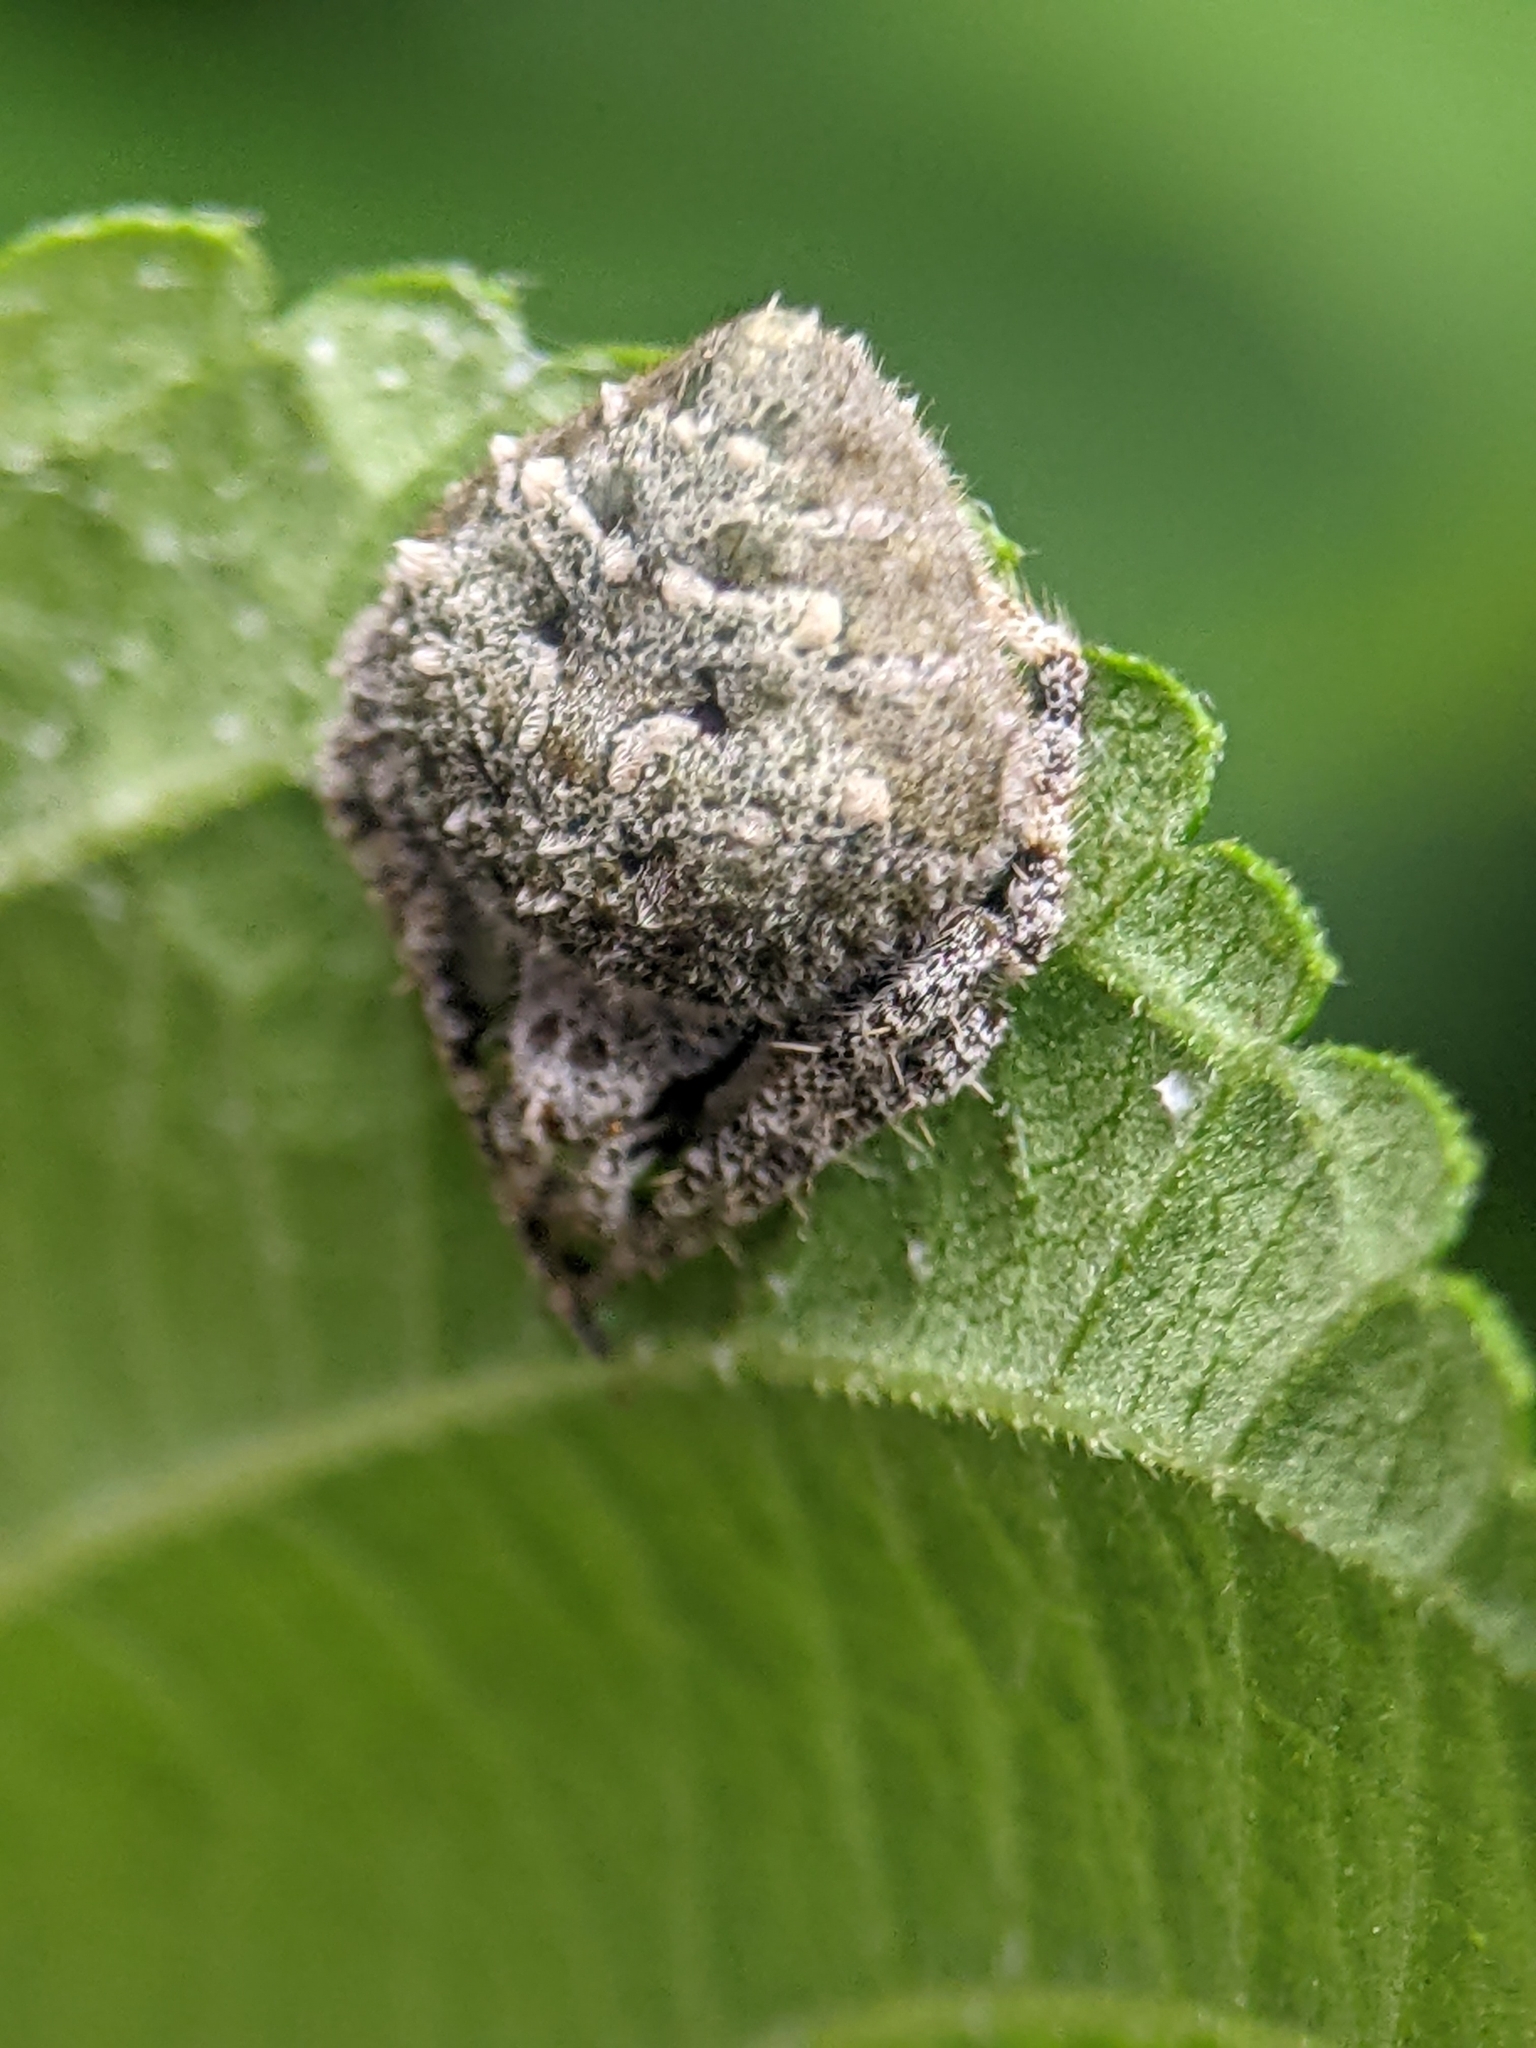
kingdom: Animalia
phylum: Arthropoda
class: Arachnida
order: Araneae
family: Araneidae
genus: Eriovixia
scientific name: Eriovixia laglaizei
